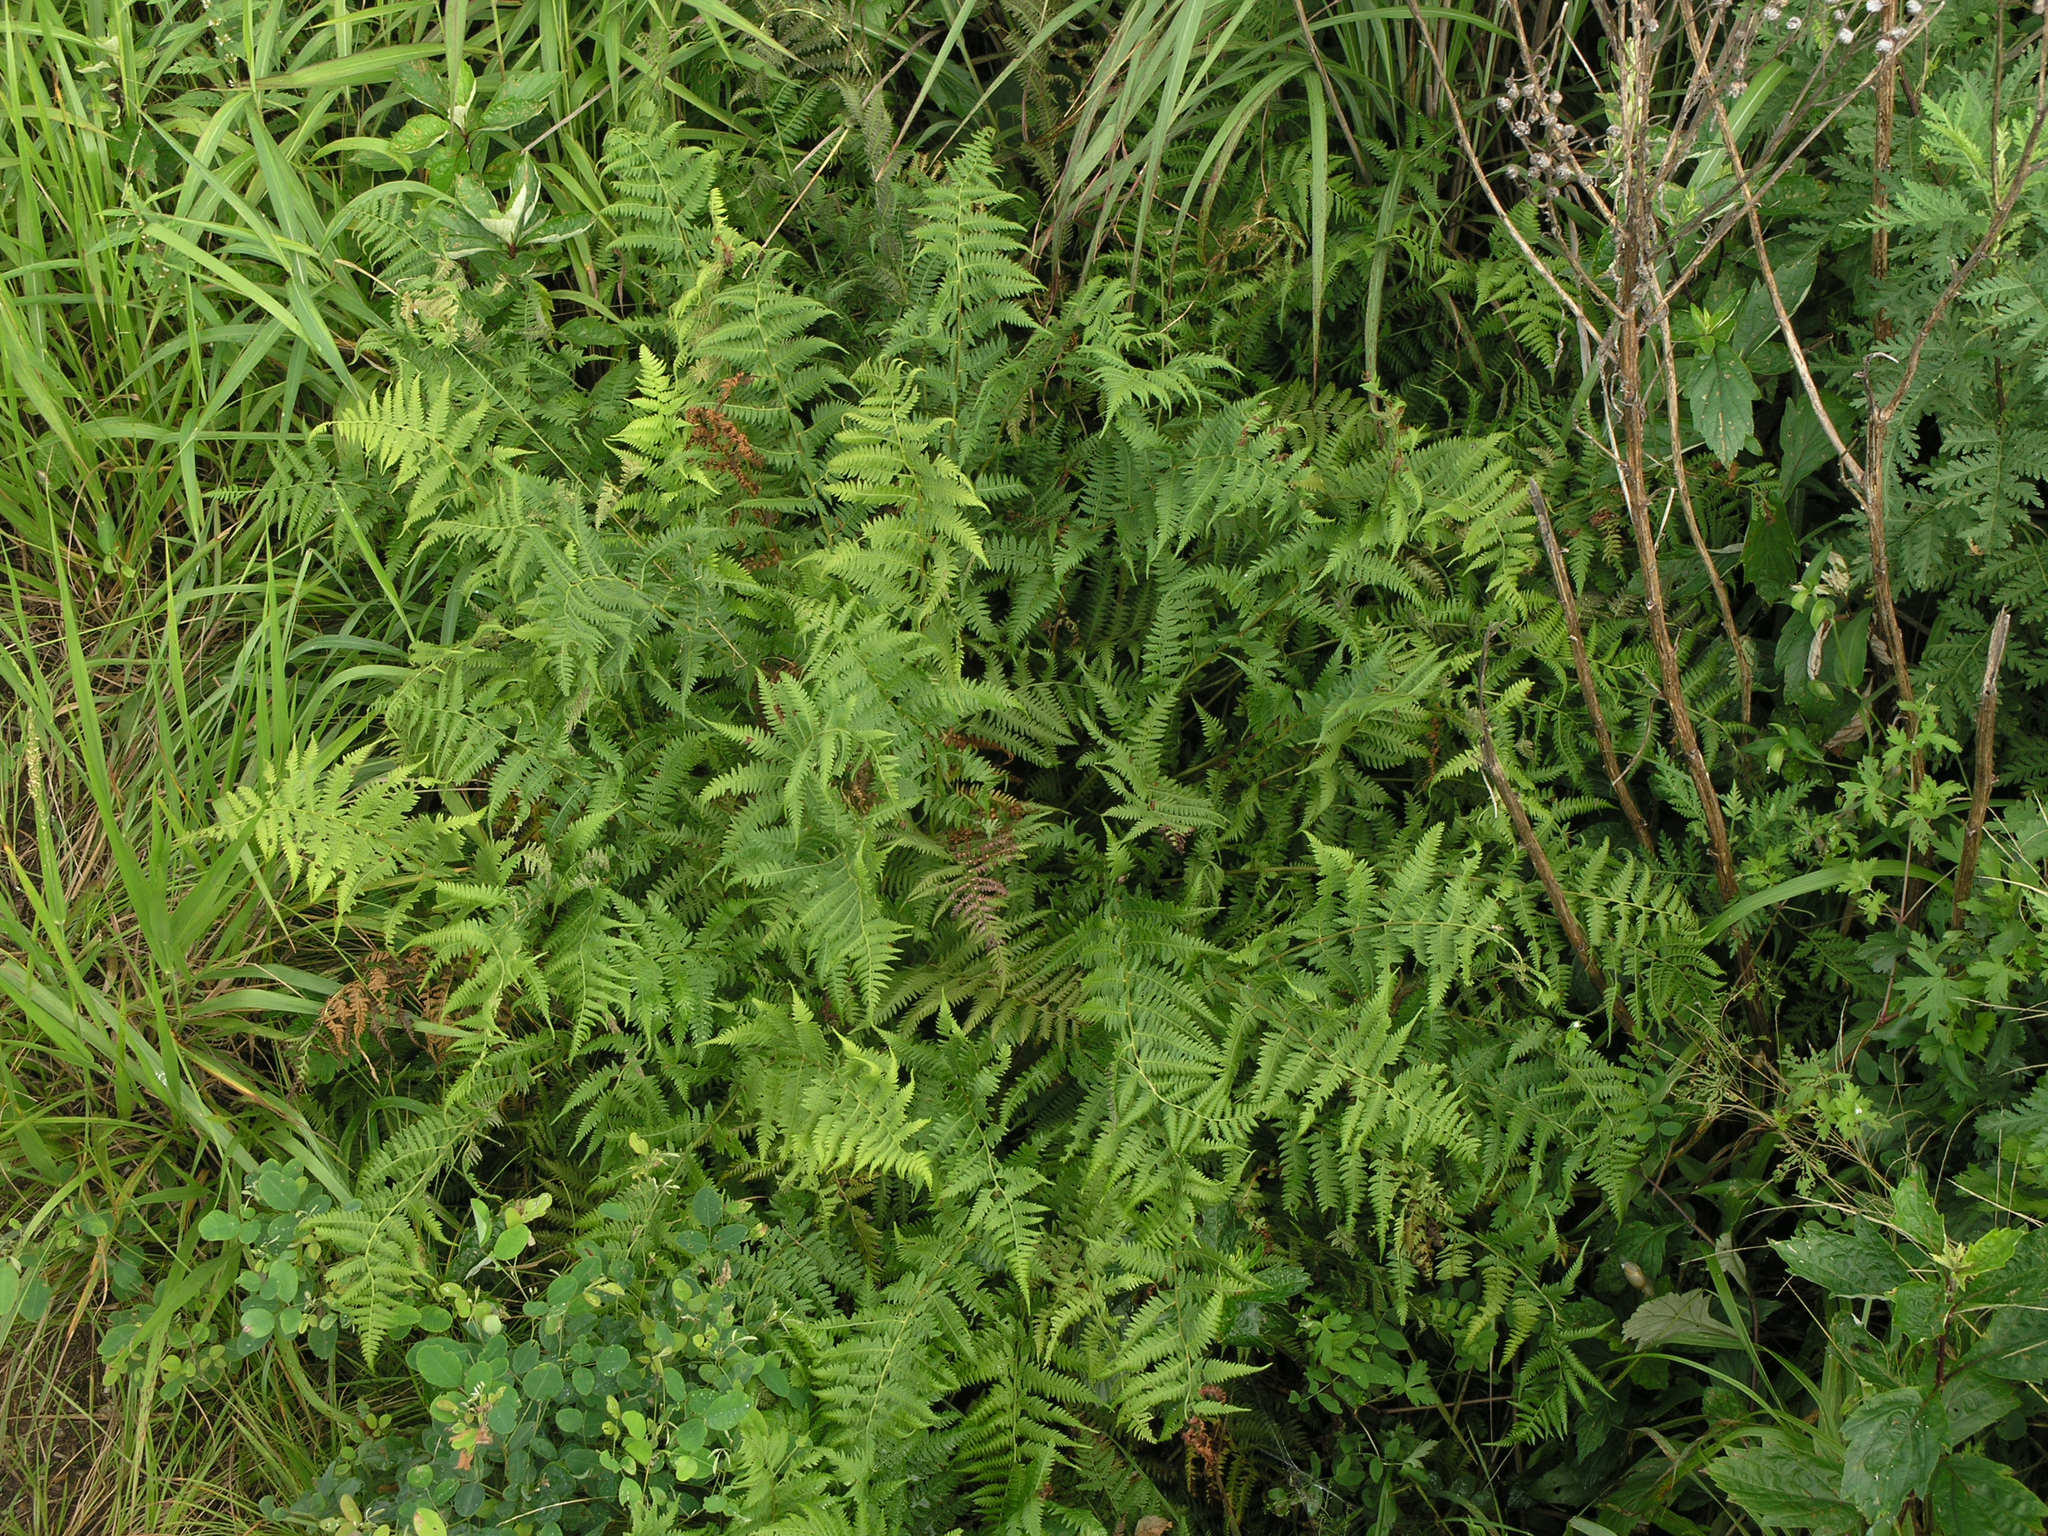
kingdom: Plantae
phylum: Tracheophyta
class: Polypodiopsida
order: Polypodiales
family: Athyriaceae
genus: Athyrium
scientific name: Athyrium yokoscense
